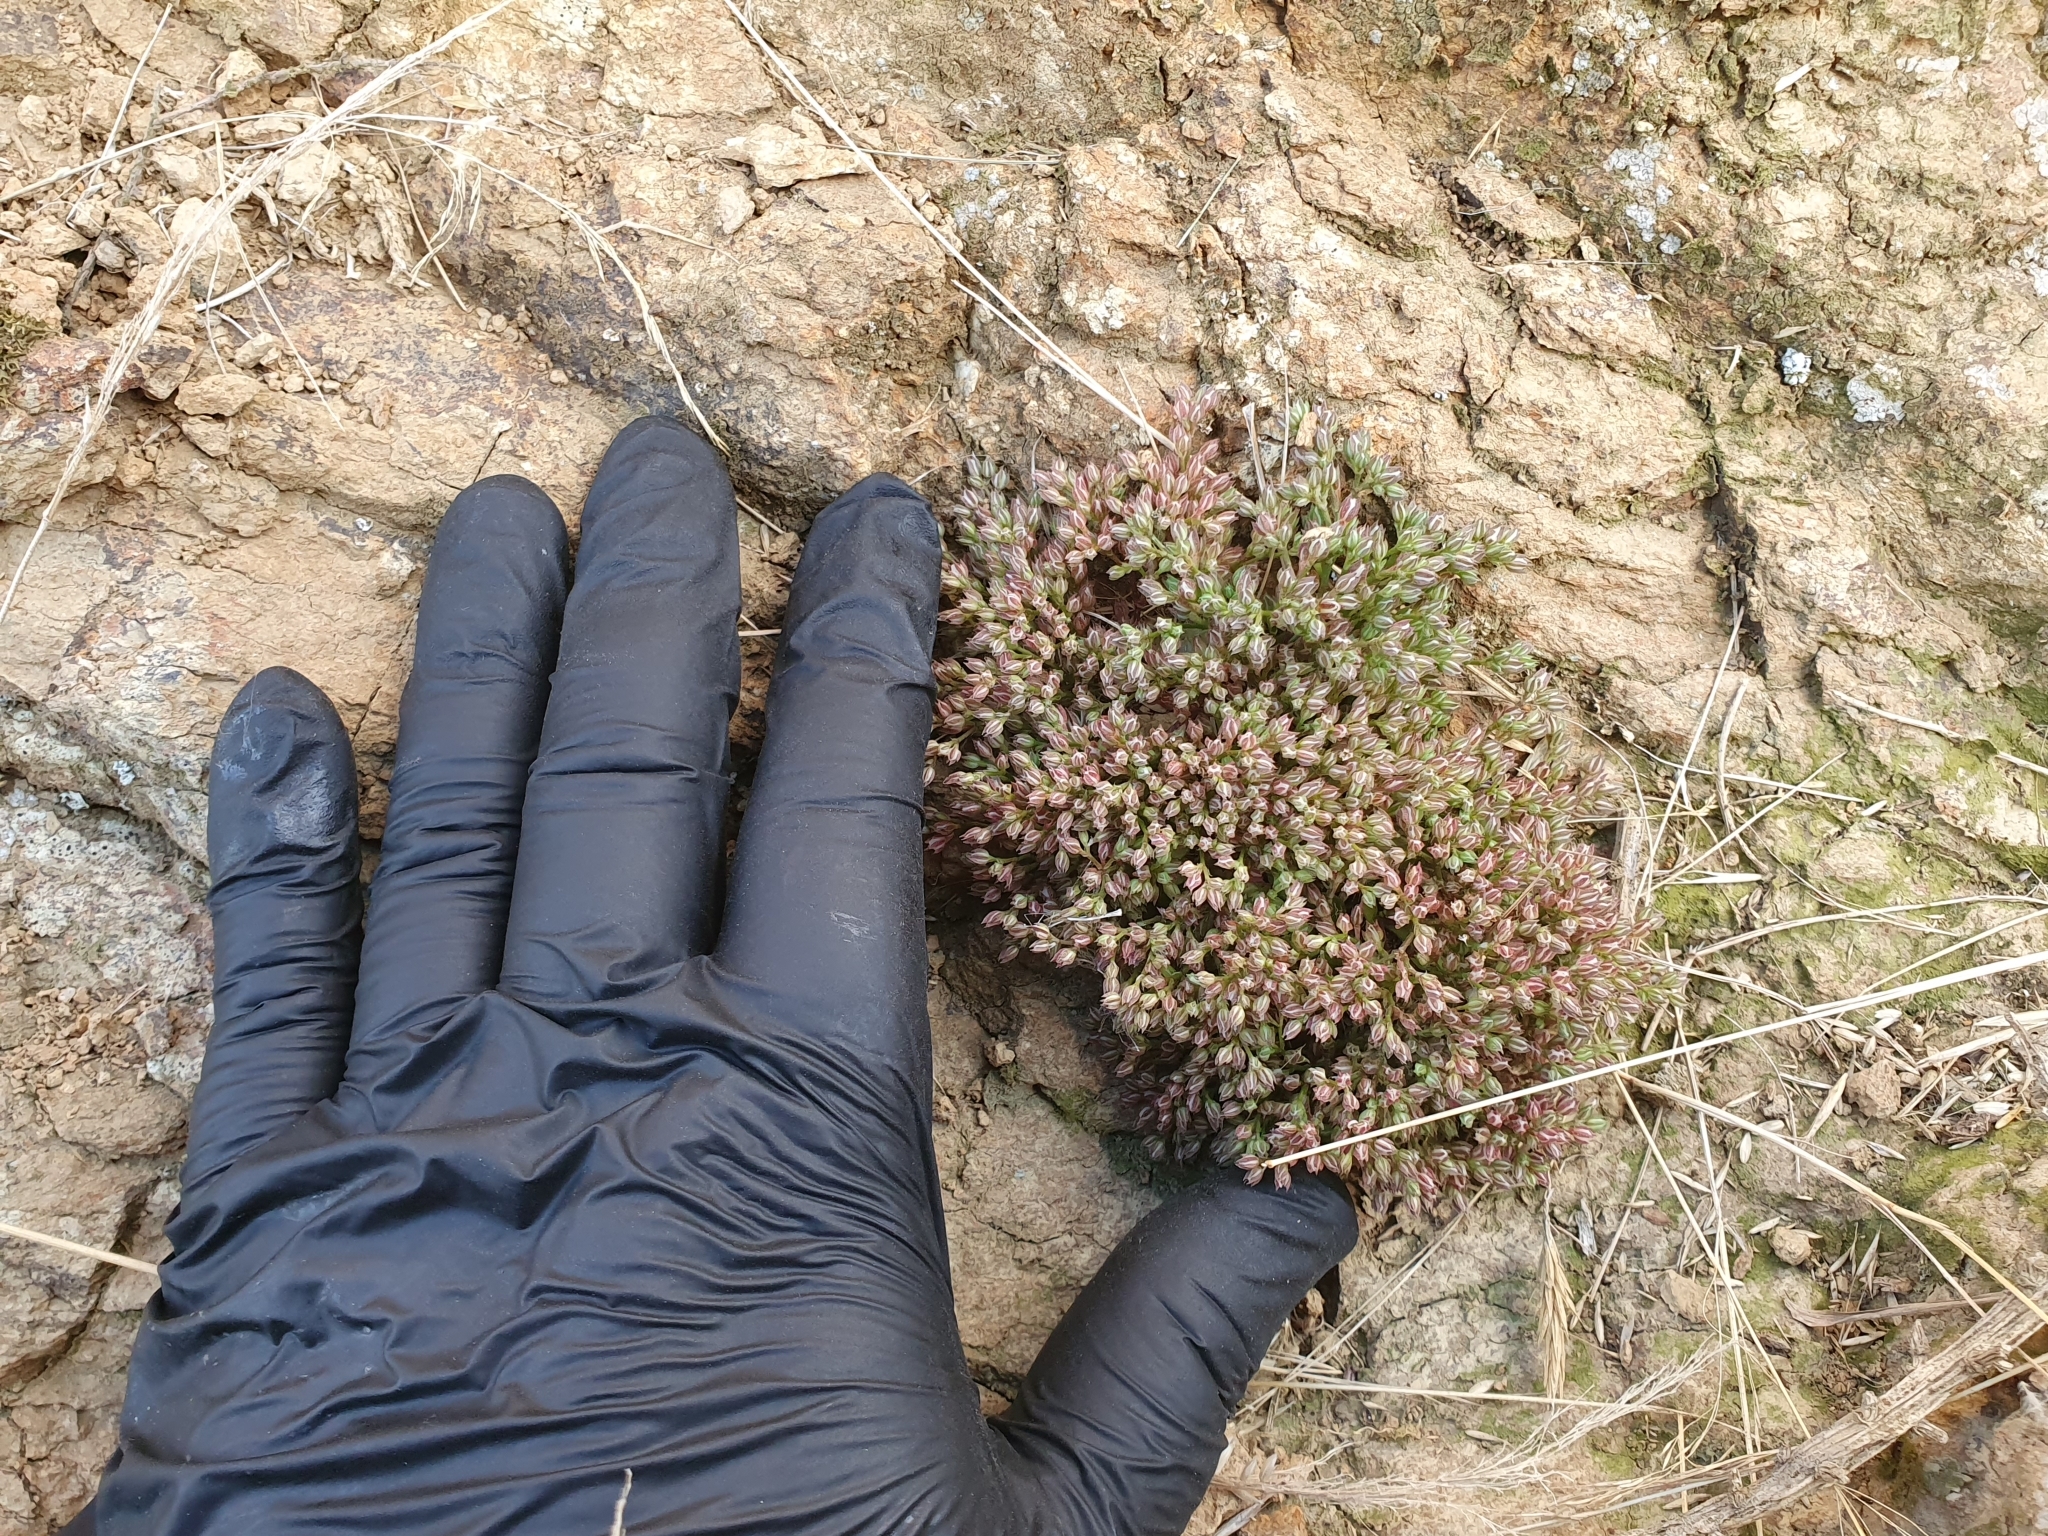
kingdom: Plantae
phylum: Tracheophyta
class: Magnoliopsida
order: Caryophyllales
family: Caryophyllaceae
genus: Polycarpon
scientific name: Polycarpon tetraphyllum
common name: Four-leaved all-seed
